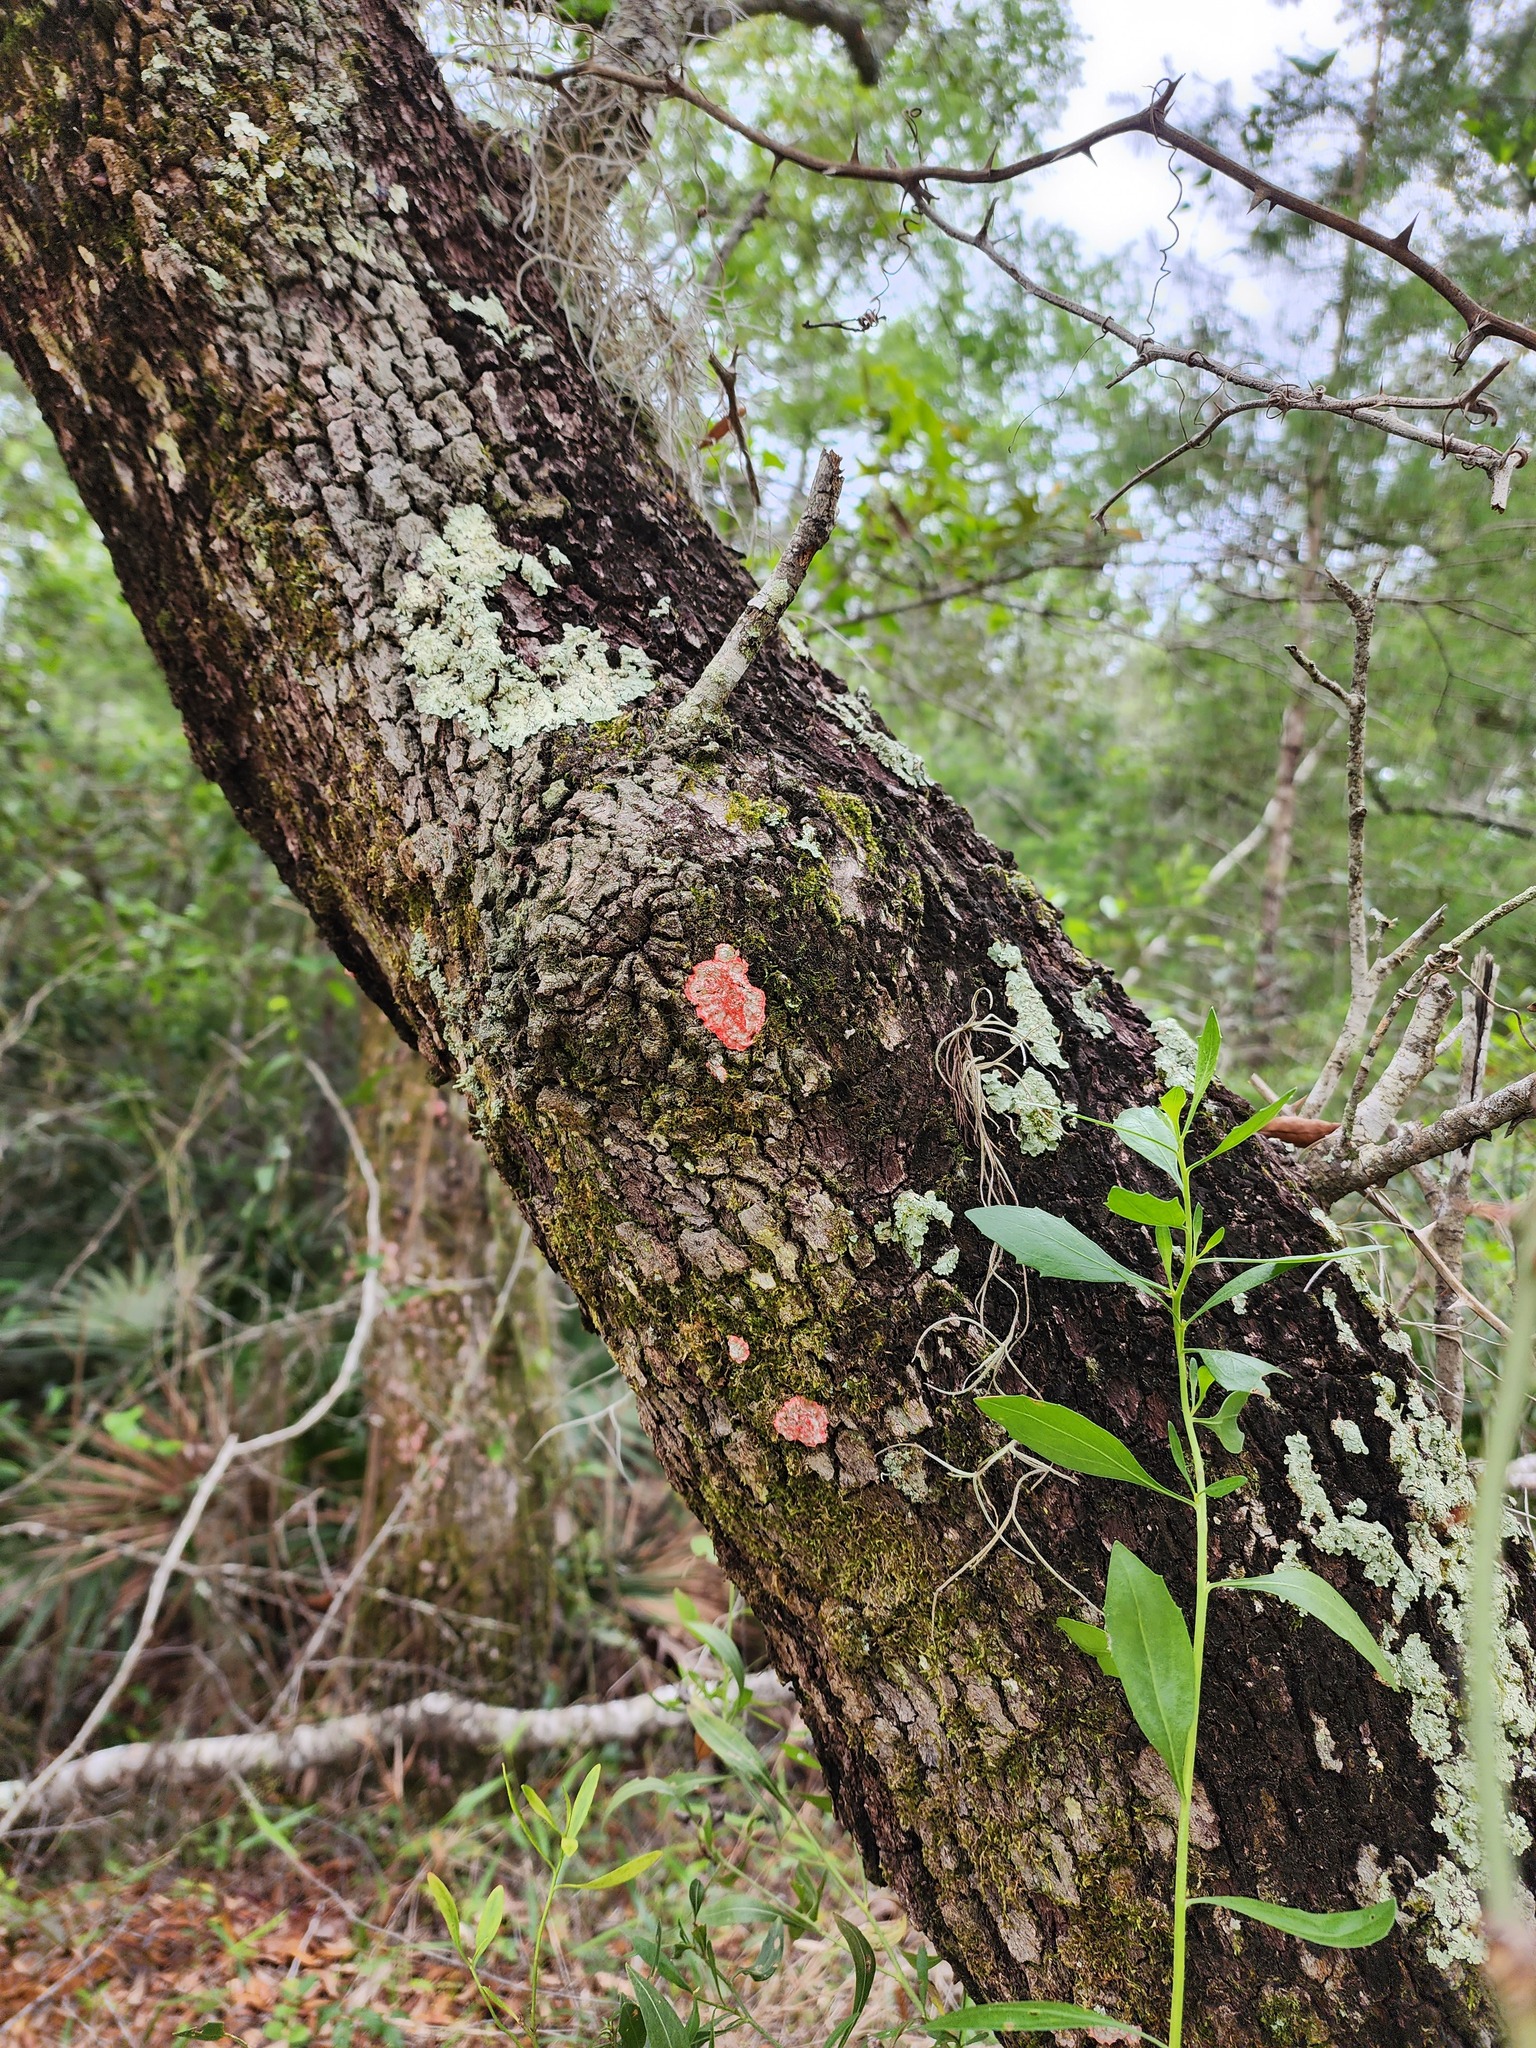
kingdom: Fungi
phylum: Ascomycota
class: Arthoniomycetes
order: Arthoniales
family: Arthoniaceae
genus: Herpothallon
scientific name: Herpothallon rubrocinctum
